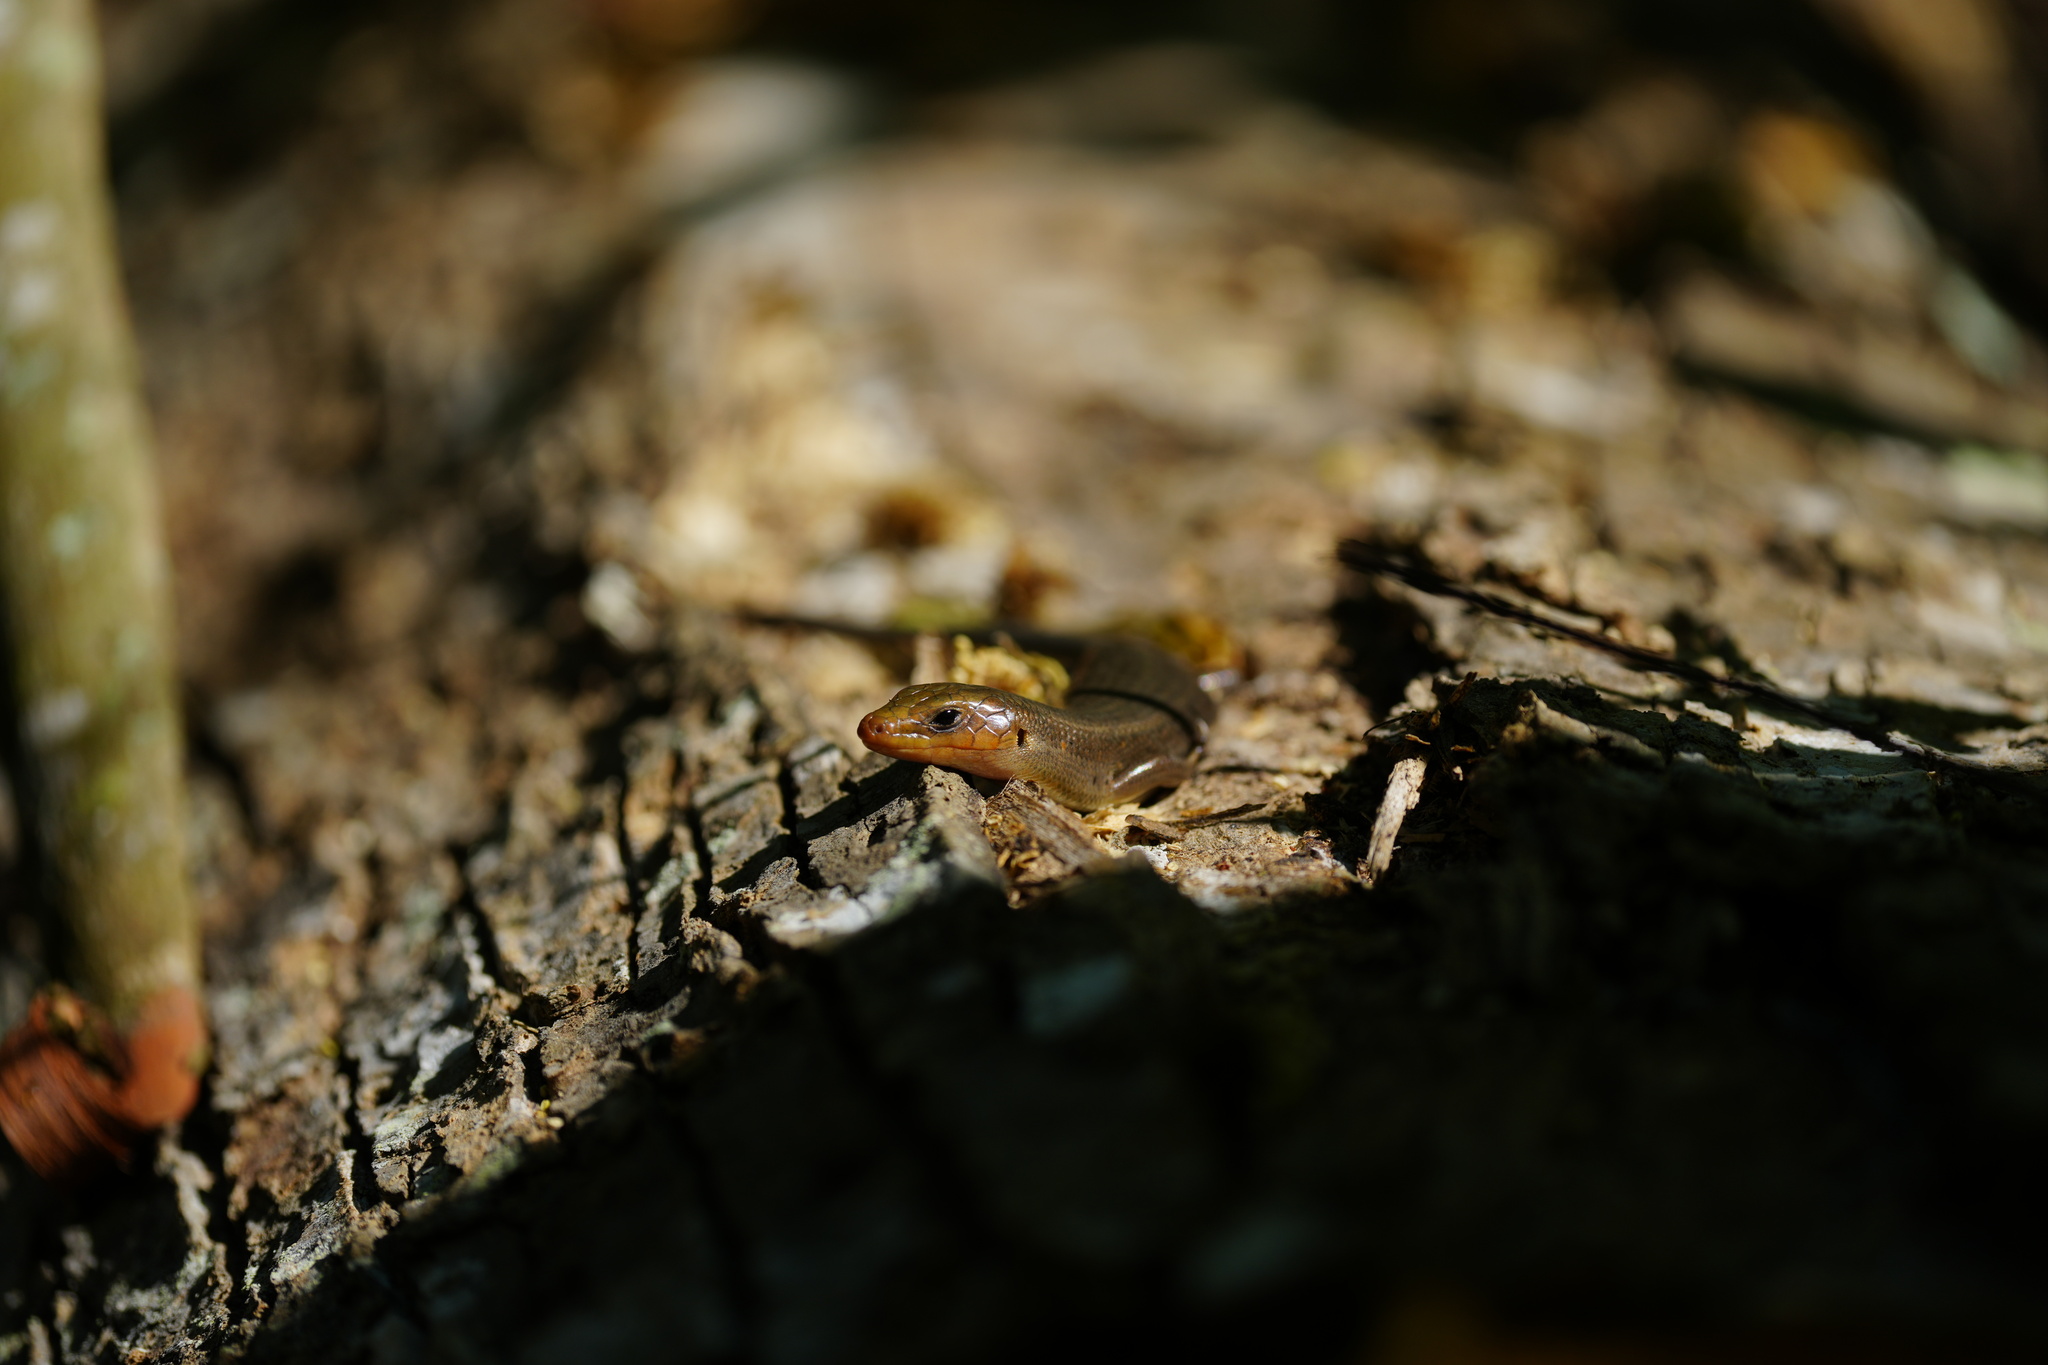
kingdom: Animalia
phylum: Chordata
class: Squamata
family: Scincidae
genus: Plestiodon
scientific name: Plestiodon fasciatus
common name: Five-lined skink
